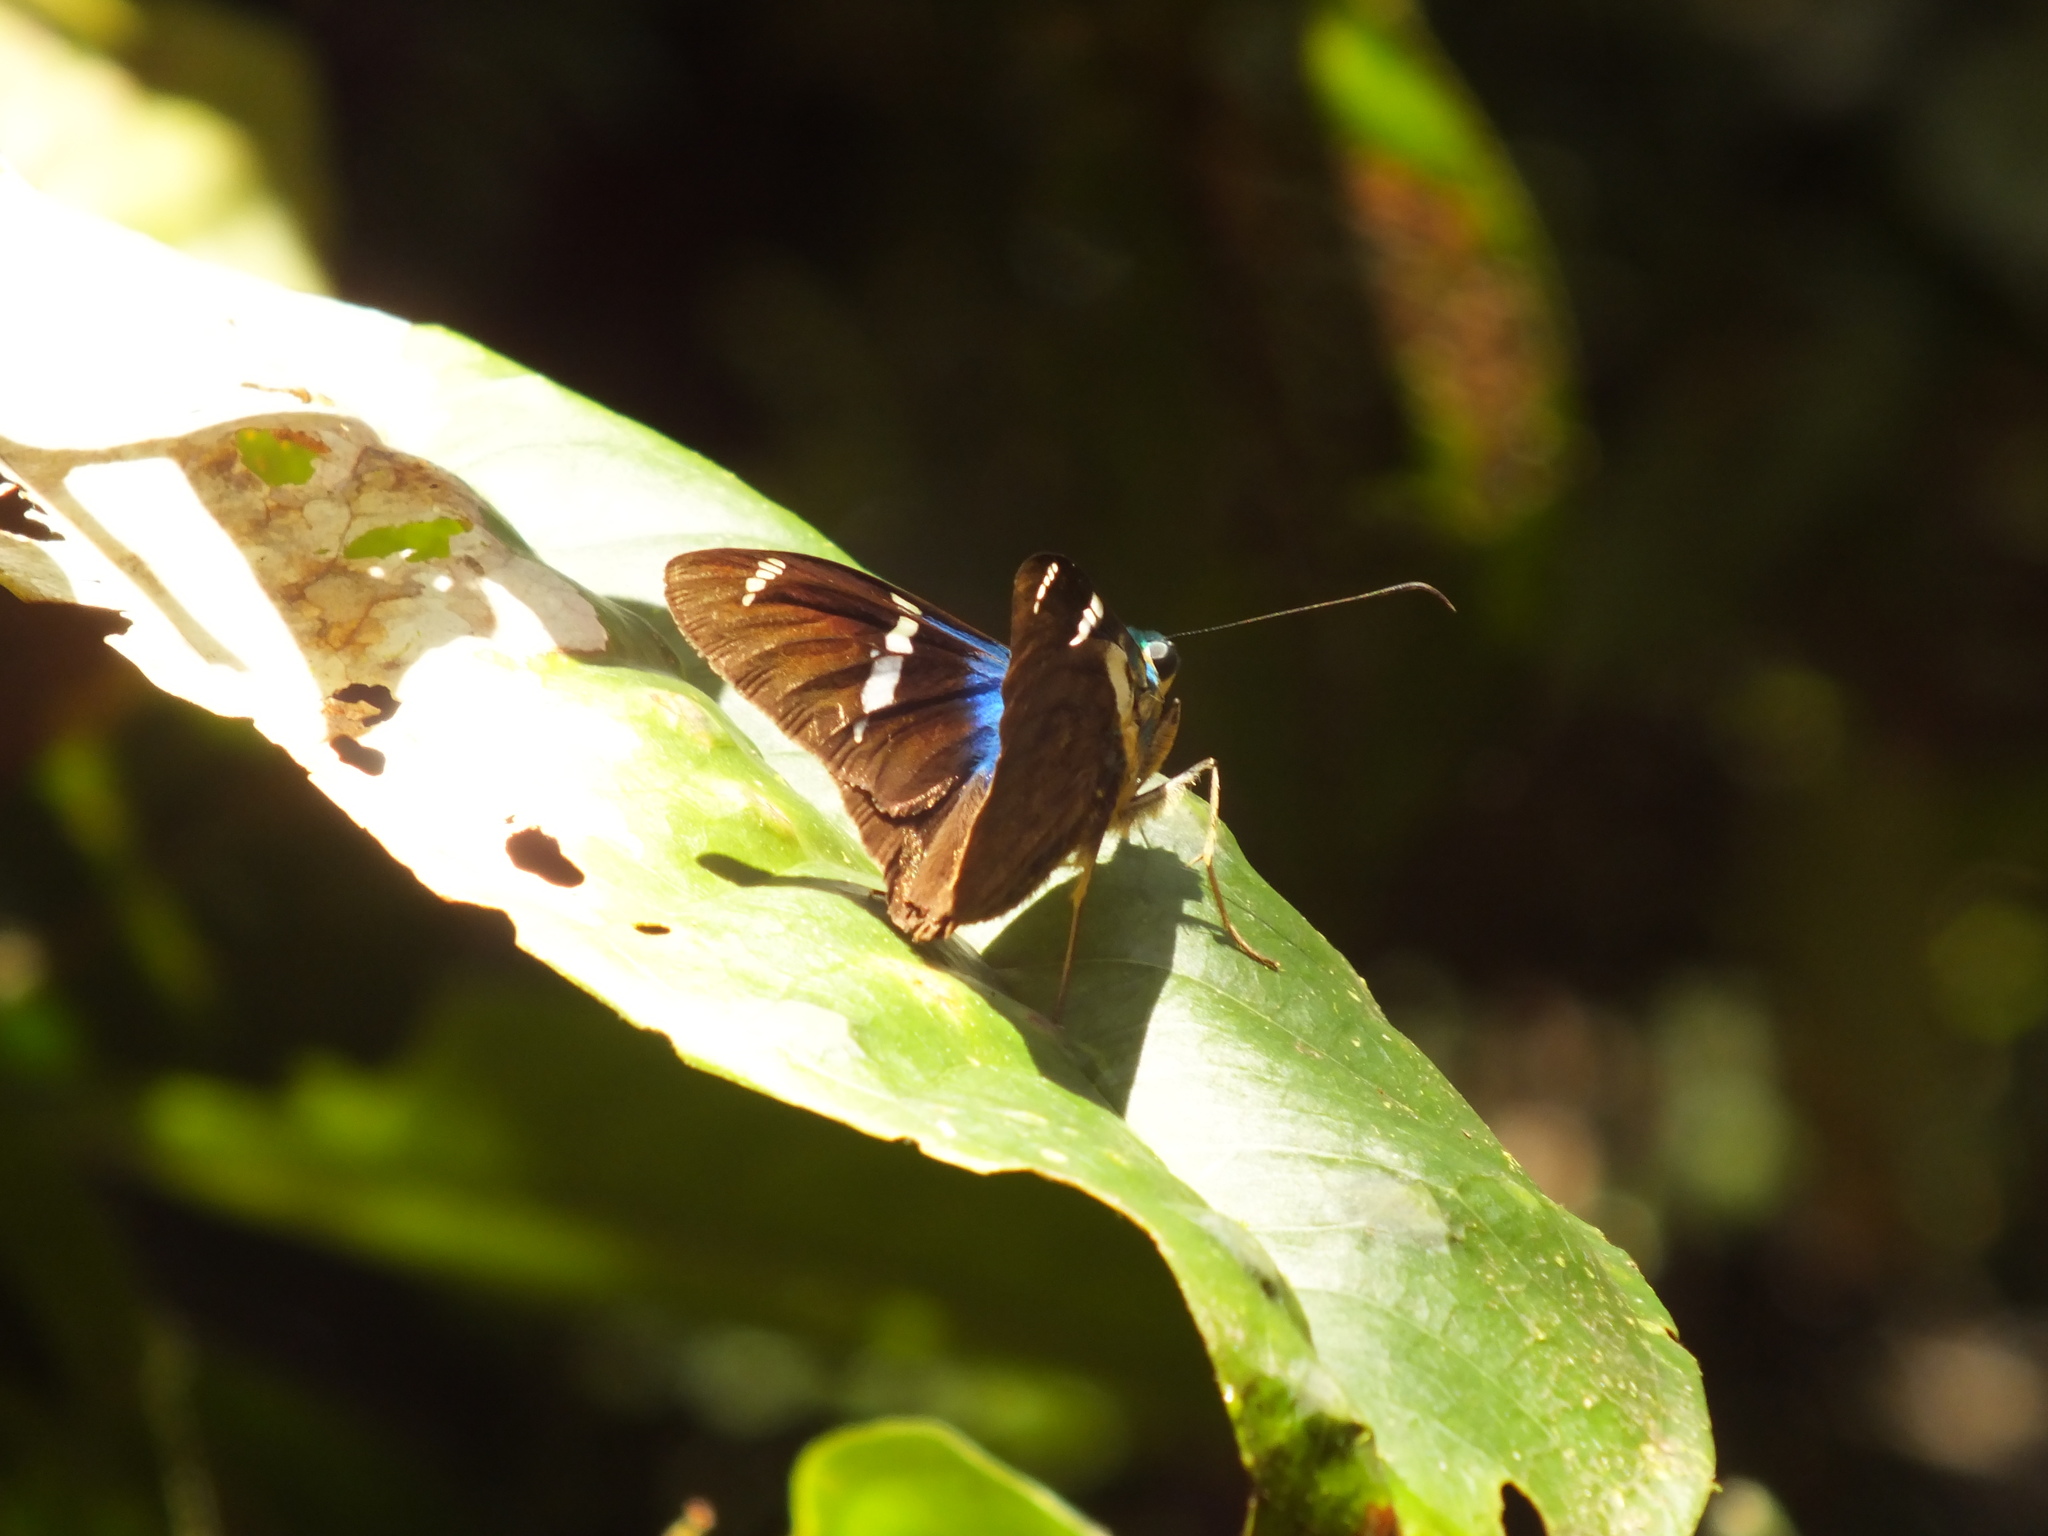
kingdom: Animalia
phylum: Arthropoda
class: Insecta
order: Lepidoptera
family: Hesperiidae
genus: Astraptes
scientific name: Astraptes fulgerator
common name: Two-barred flasher
